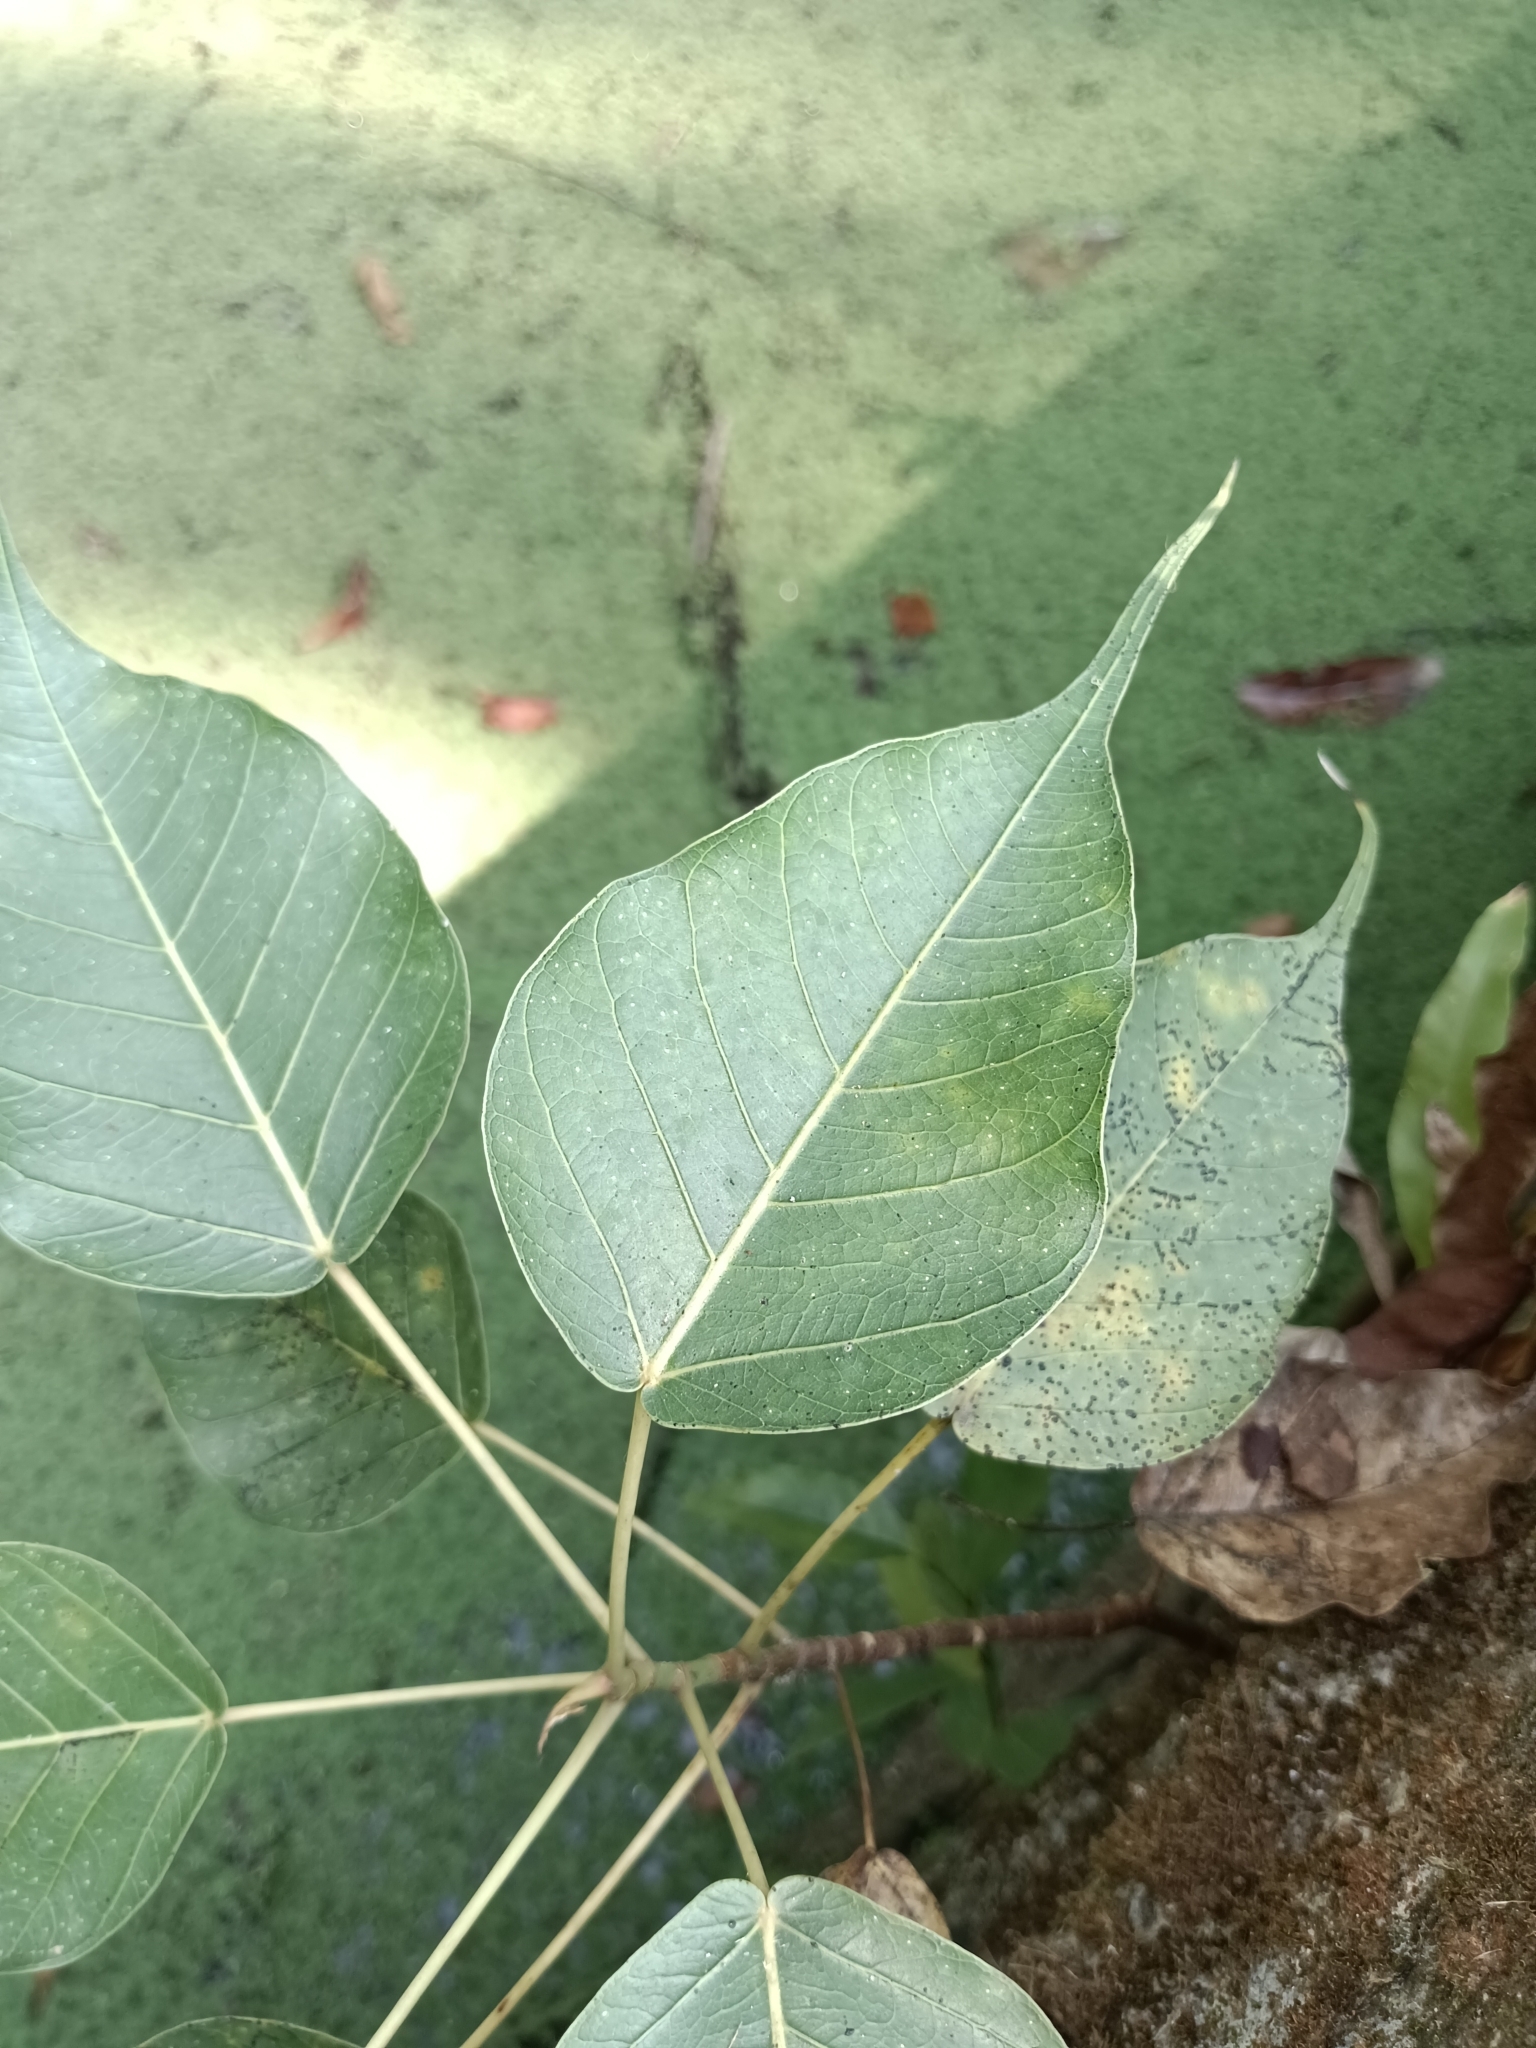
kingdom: Plantae
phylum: Tracheophyta
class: Magnoliopsida
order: Rosales
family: Moraceae
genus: Ficus
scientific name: Ficus religiosa
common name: Bodhi tree
